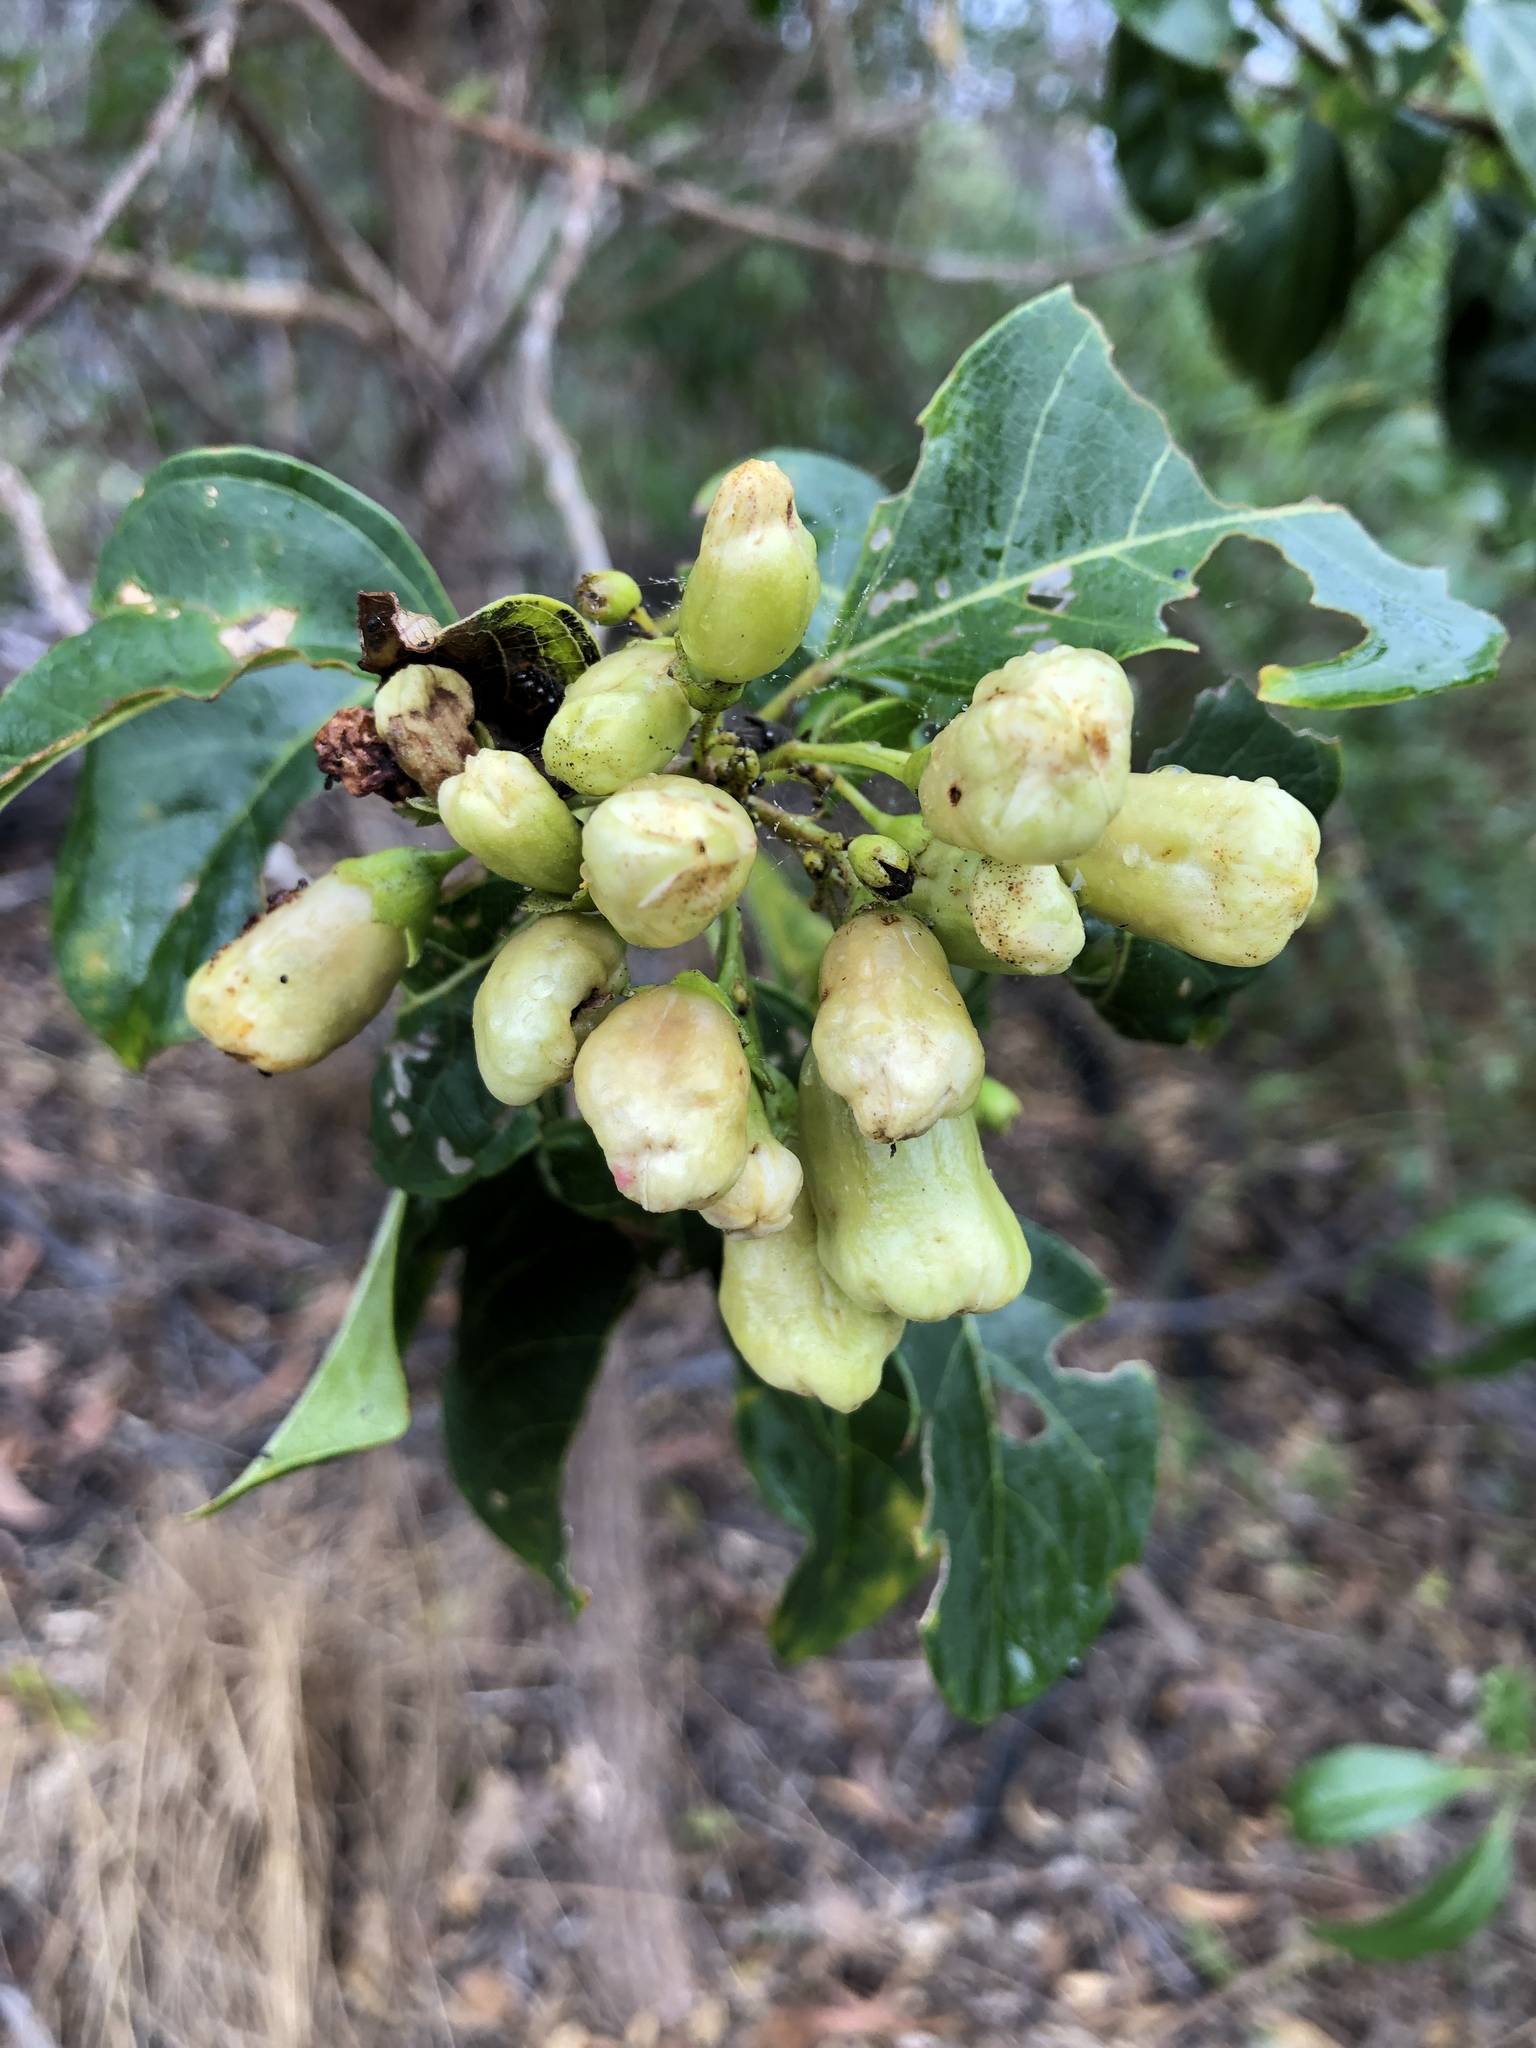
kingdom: Plantae
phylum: Tracheophyta
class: Magnoliopsida
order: Lamiales
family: Lamiaceae
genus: Clerodendrum
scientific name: Clerodendrum floribundum
